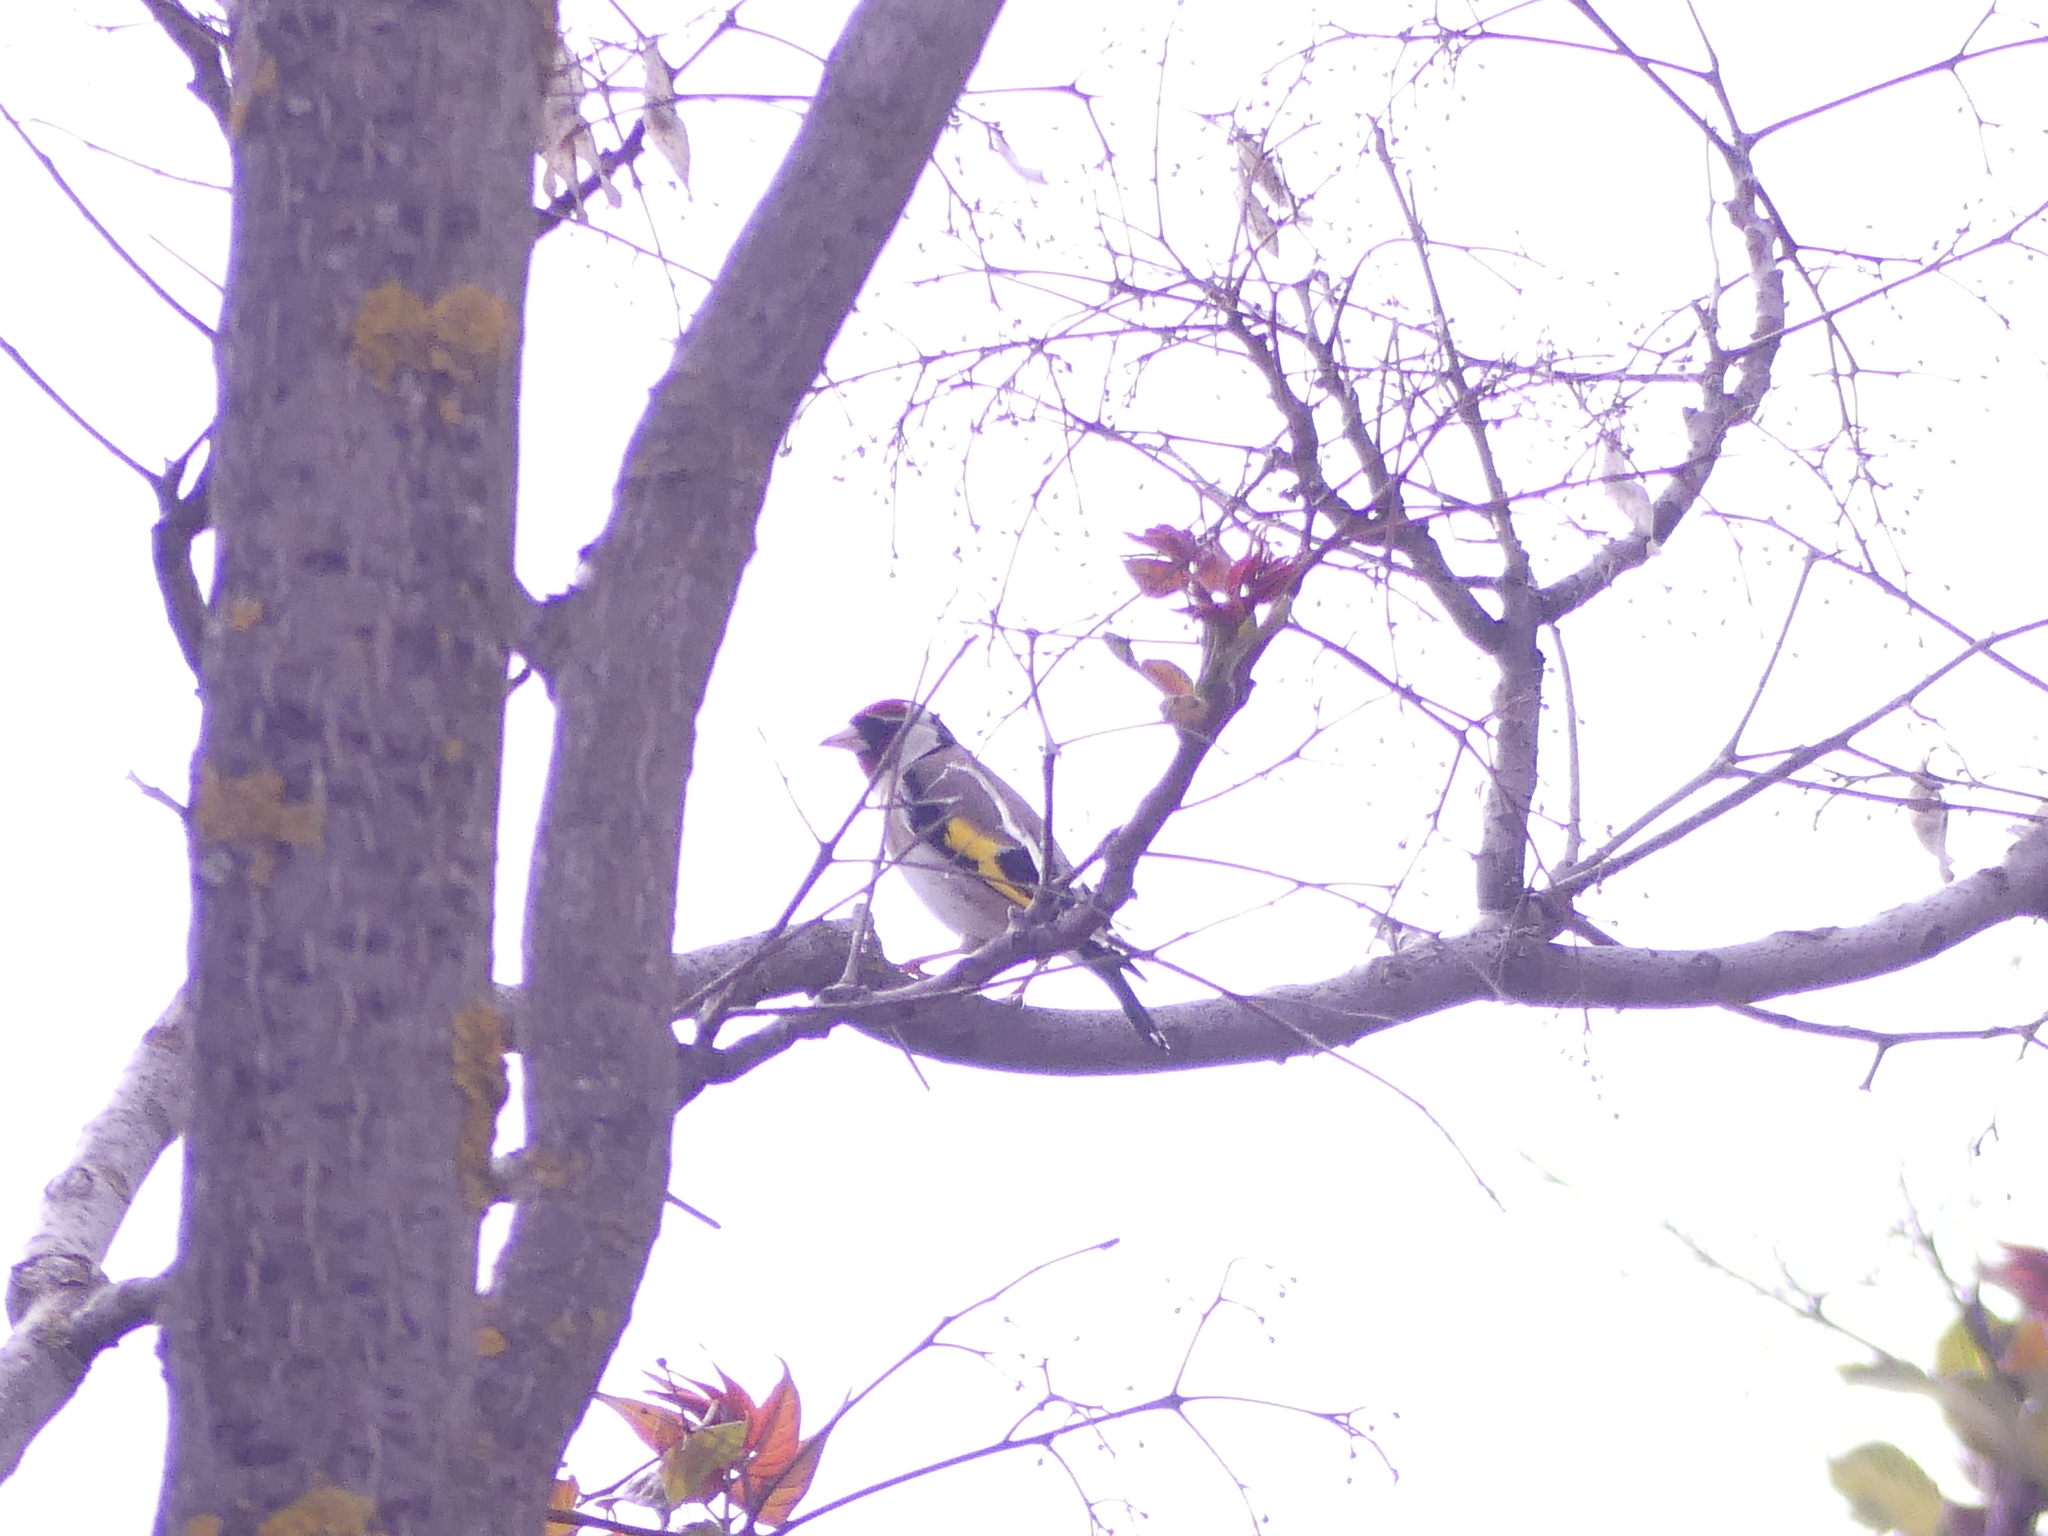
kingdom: Animalia
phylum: Chordata
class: Aves
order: Passeriformes
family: Fringillidae
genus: Carduelis
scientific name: Carduelis carduelis
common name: European goldfinch
